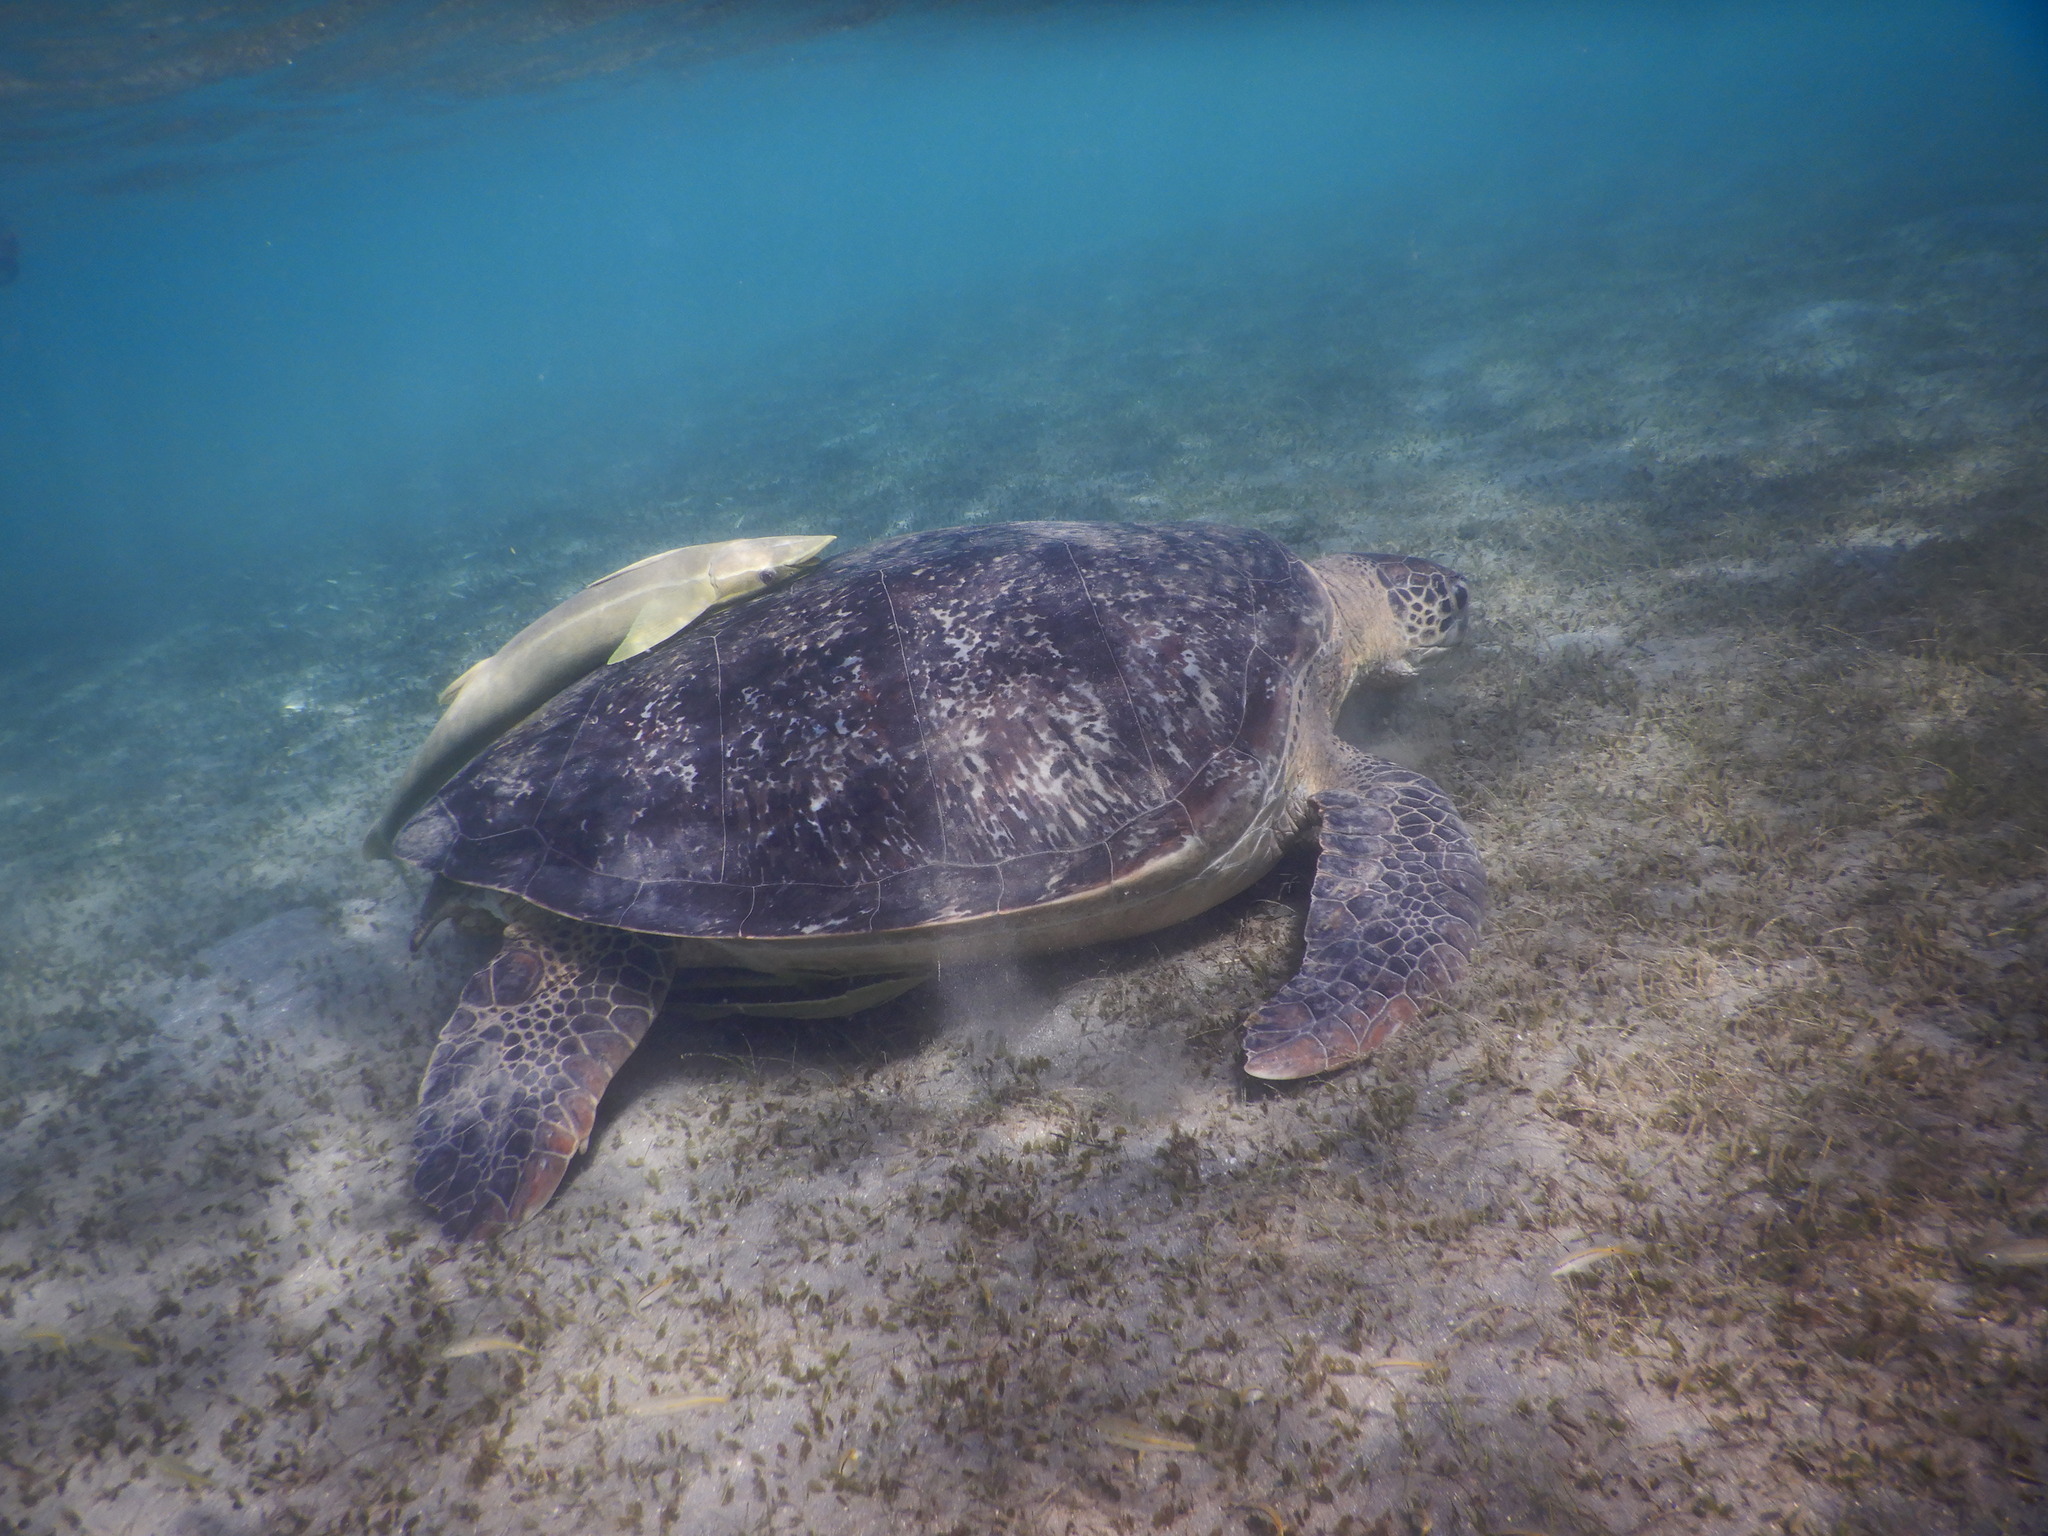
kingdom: Animalia
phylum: Chordata
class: Testudines
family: Cheloniidae
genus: Chelonia
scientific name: Chelonia mydas
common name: Green turtle
